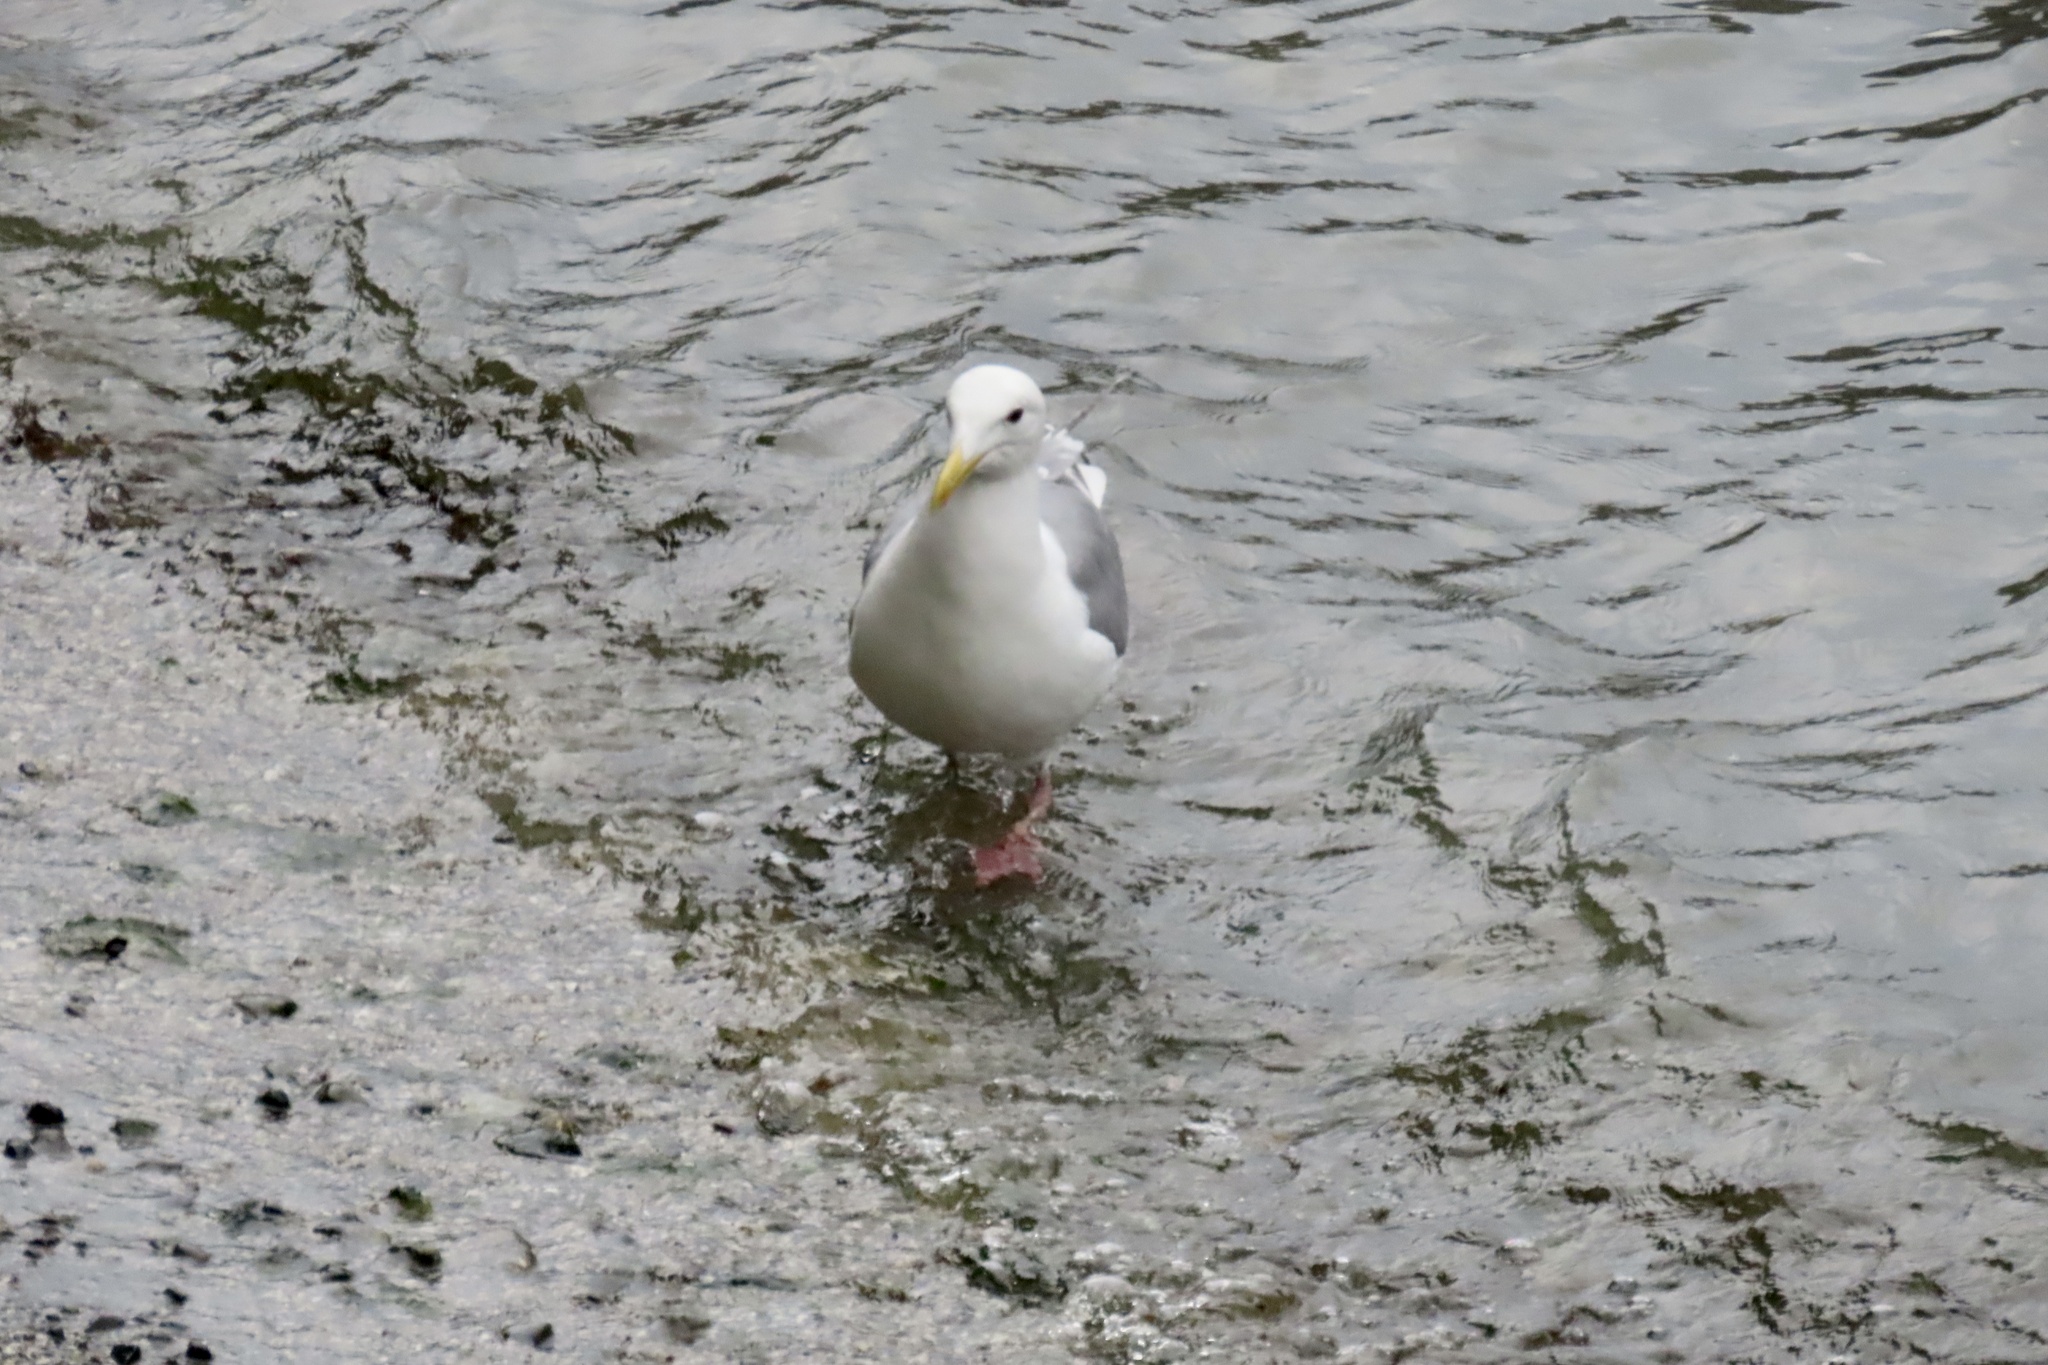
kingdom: Animalia
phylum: Chordata
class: Aves
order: Charadriiformes
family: Laridae
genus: Larus
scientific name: Larus
